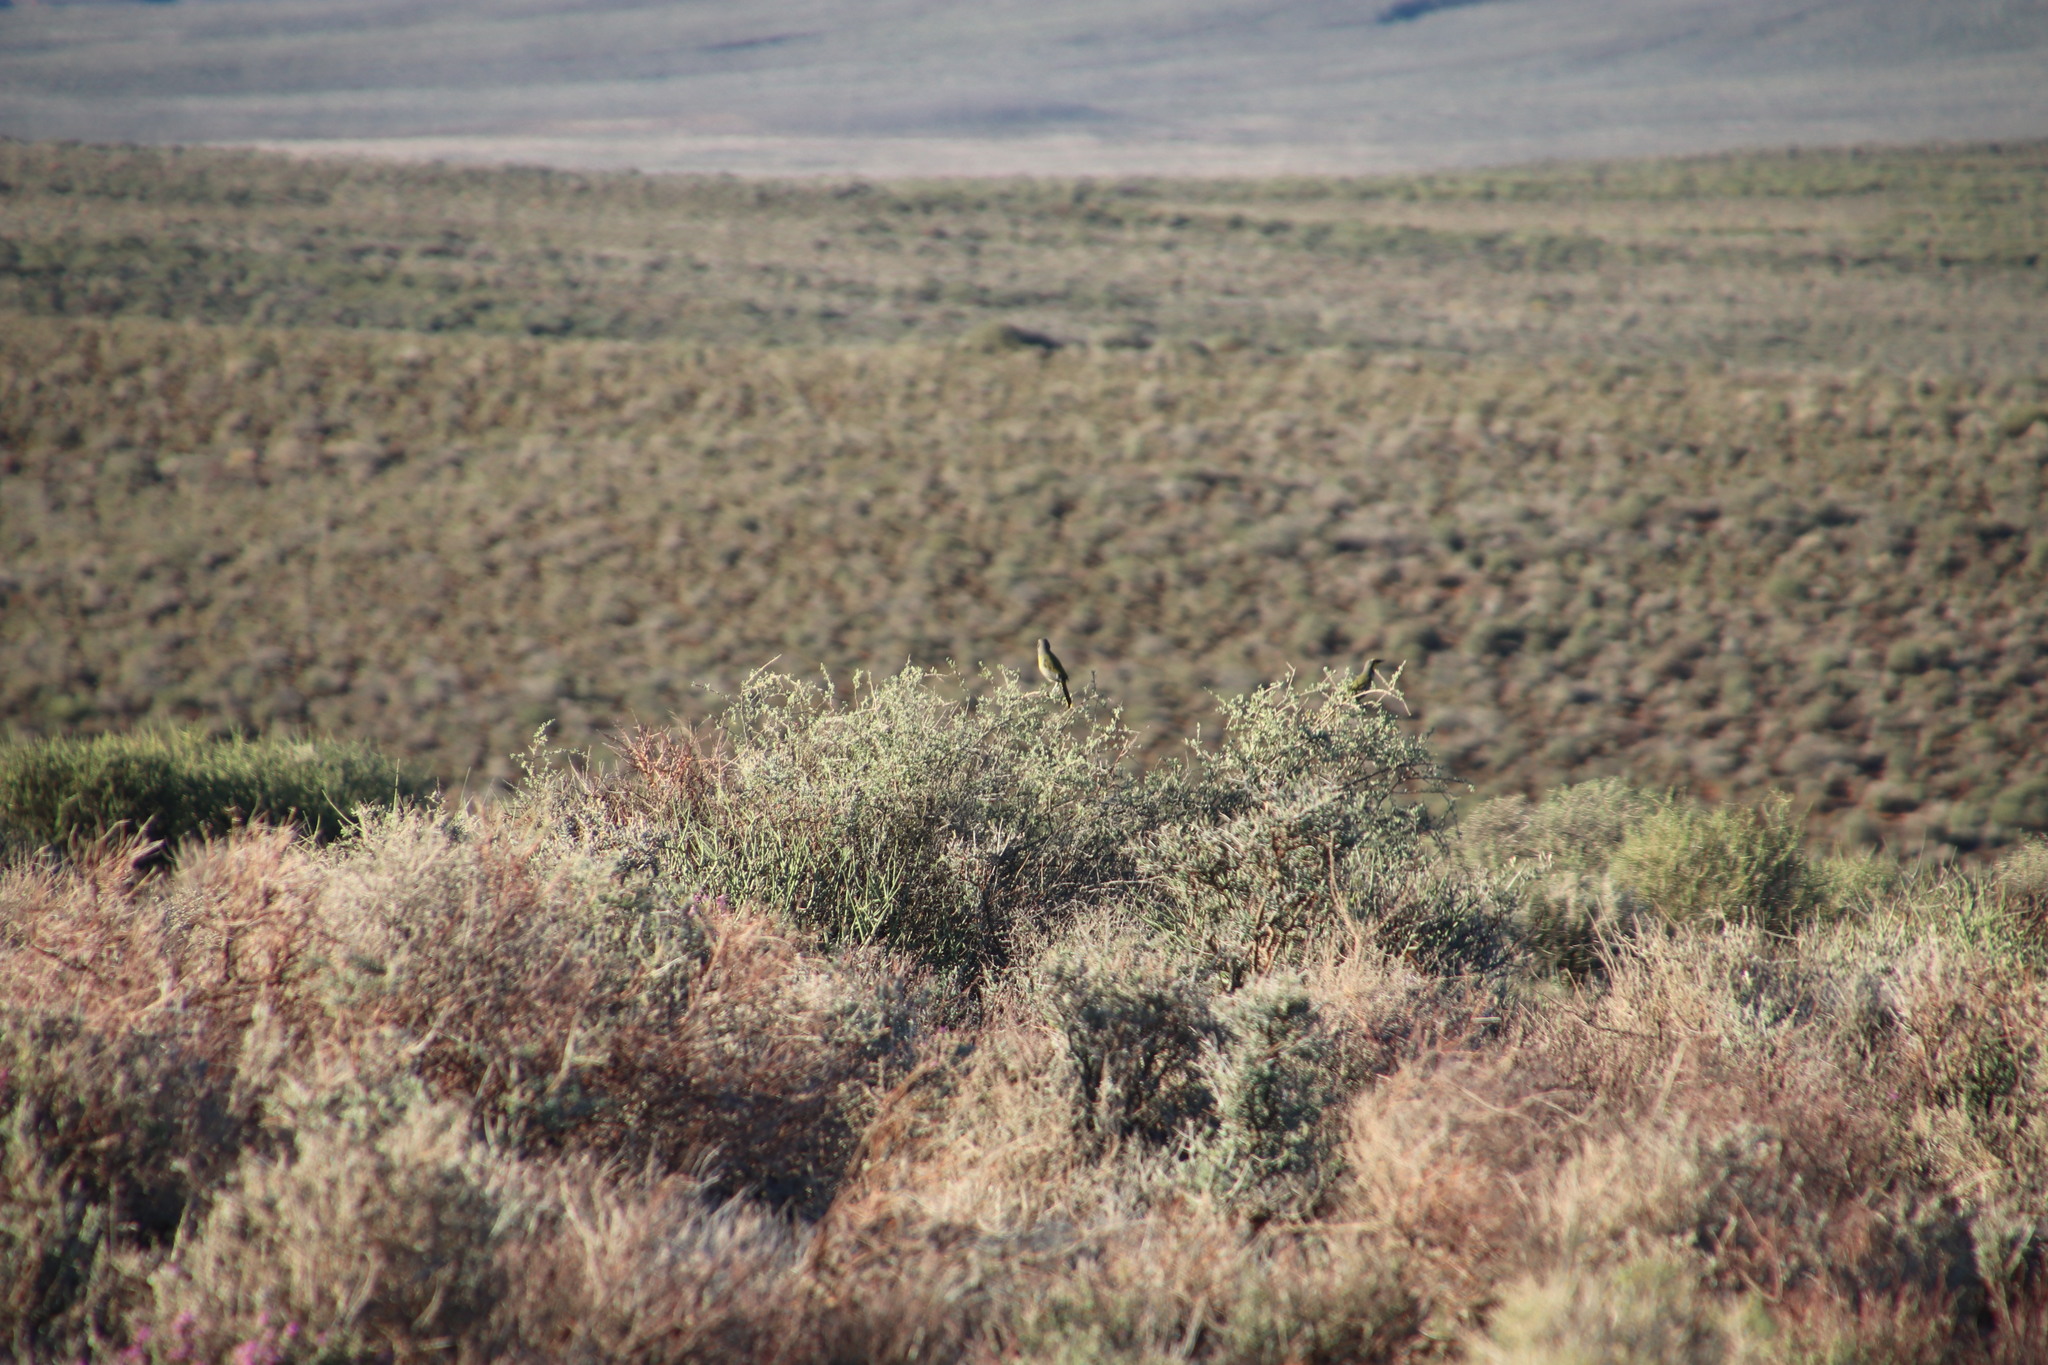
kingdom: Animalia
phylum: Chordata
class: Aves
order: Passeriformes
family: Malaconotidae
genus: Telophorus
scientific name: Telophorus zeylonus
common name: Bokmakierie
